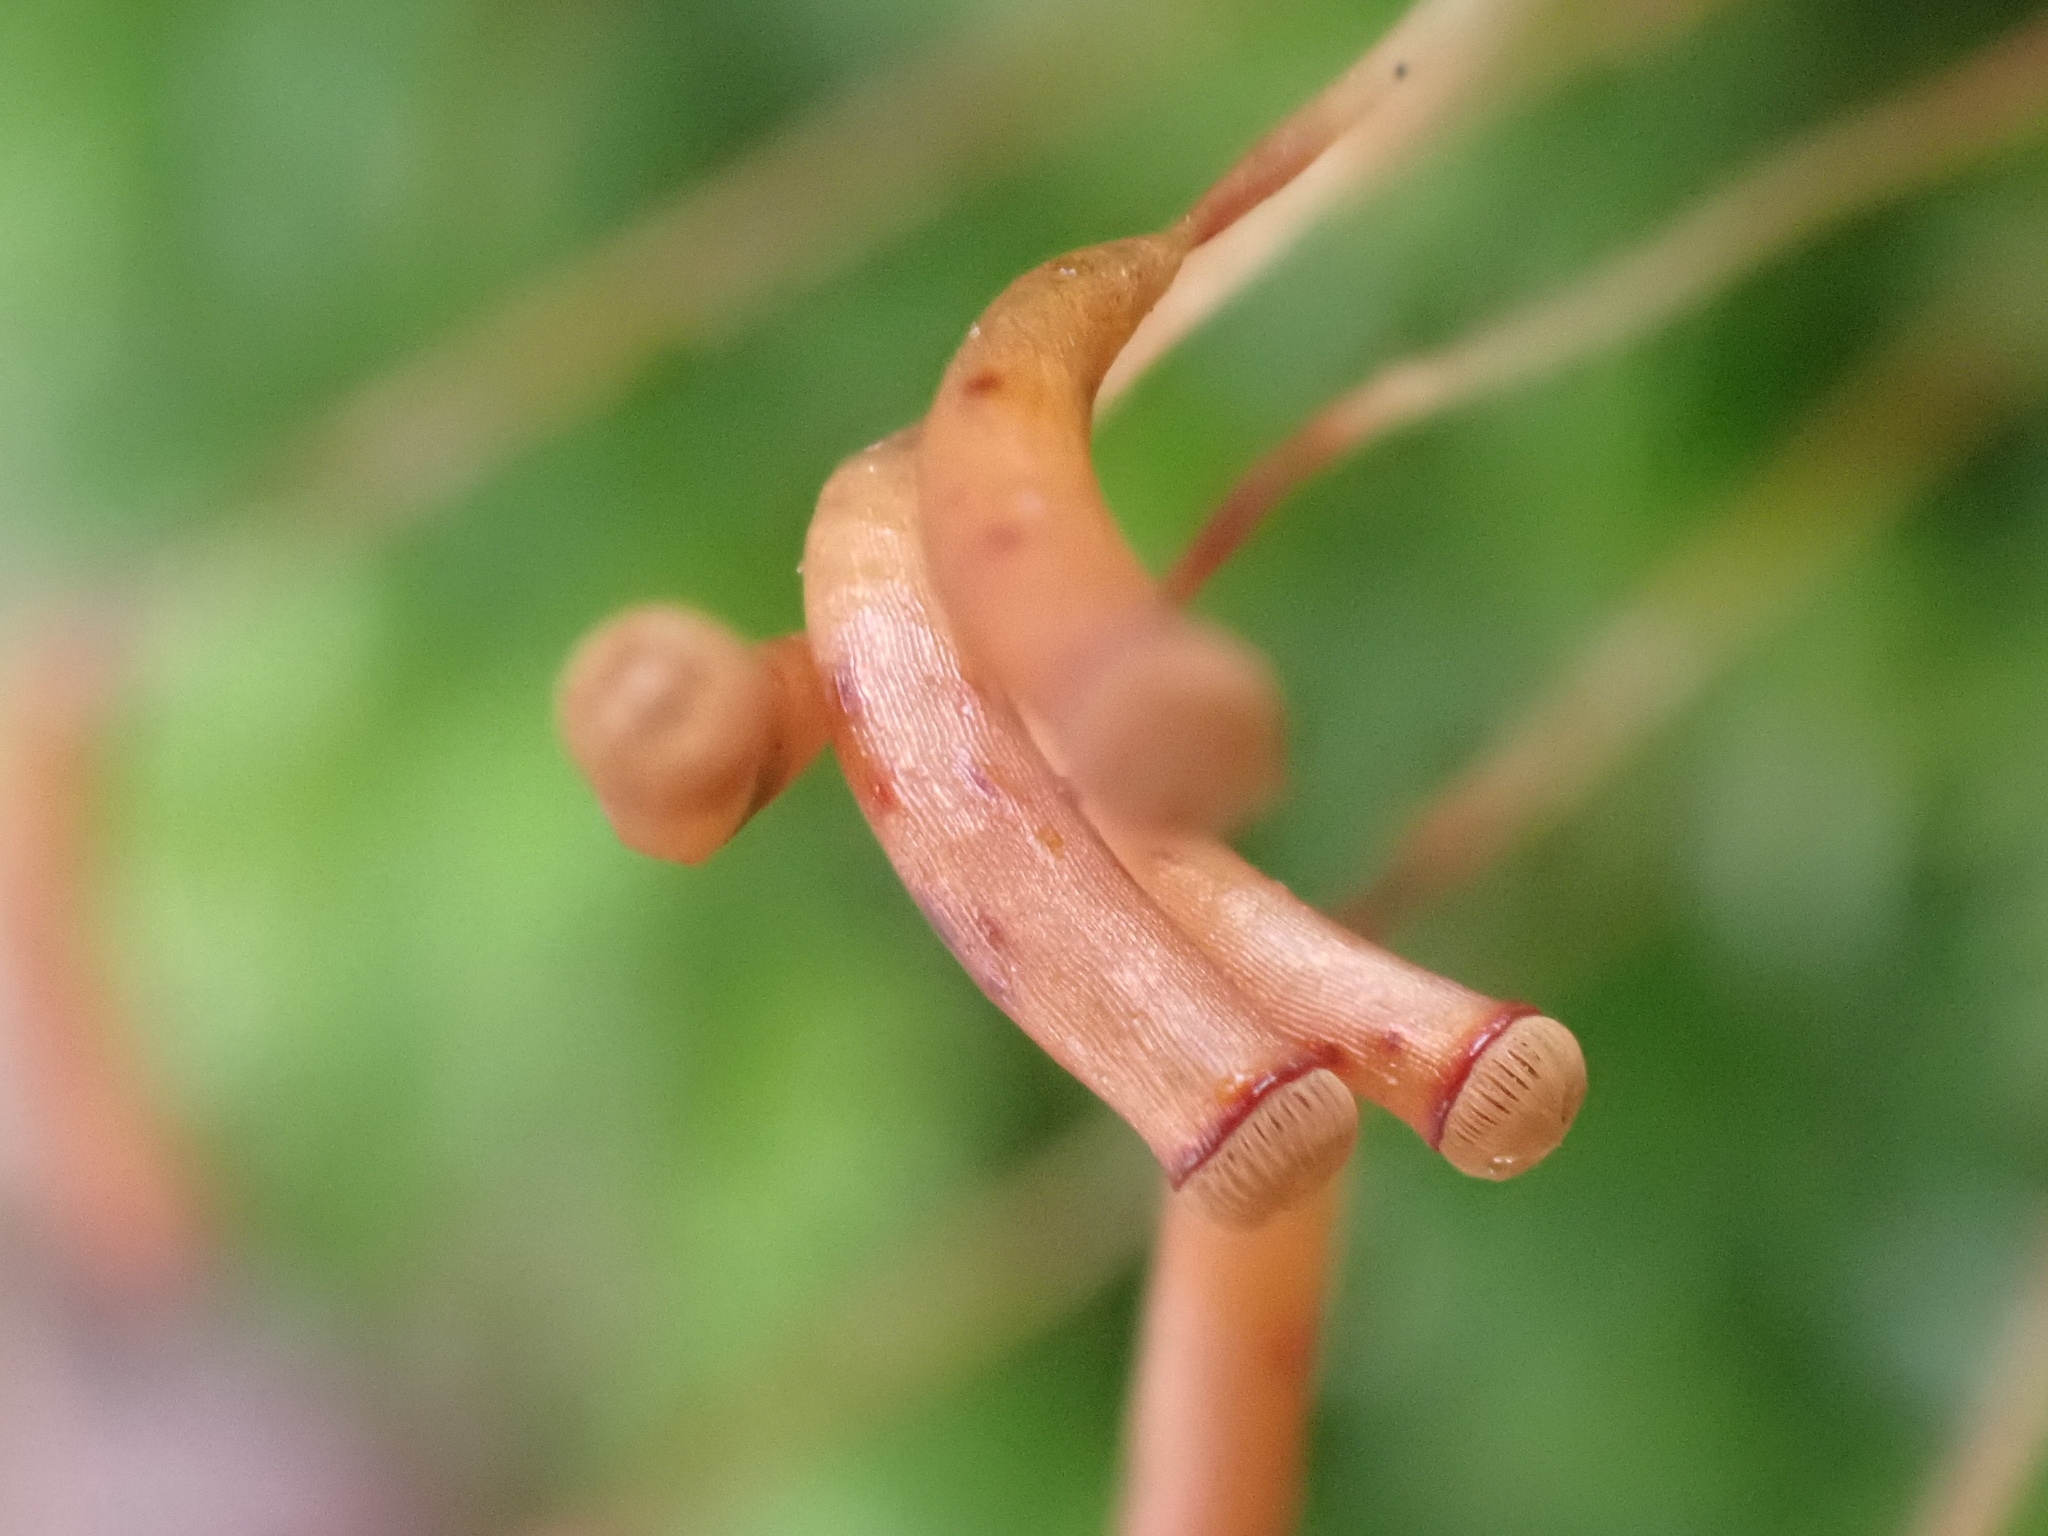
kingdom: Plantae
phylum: Bryophyta
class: Polytrichopsida
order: Polytrichales
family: Polytrichaceae
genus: Atrichum
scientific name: Atrichum undulatum
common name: Common smoothcap
